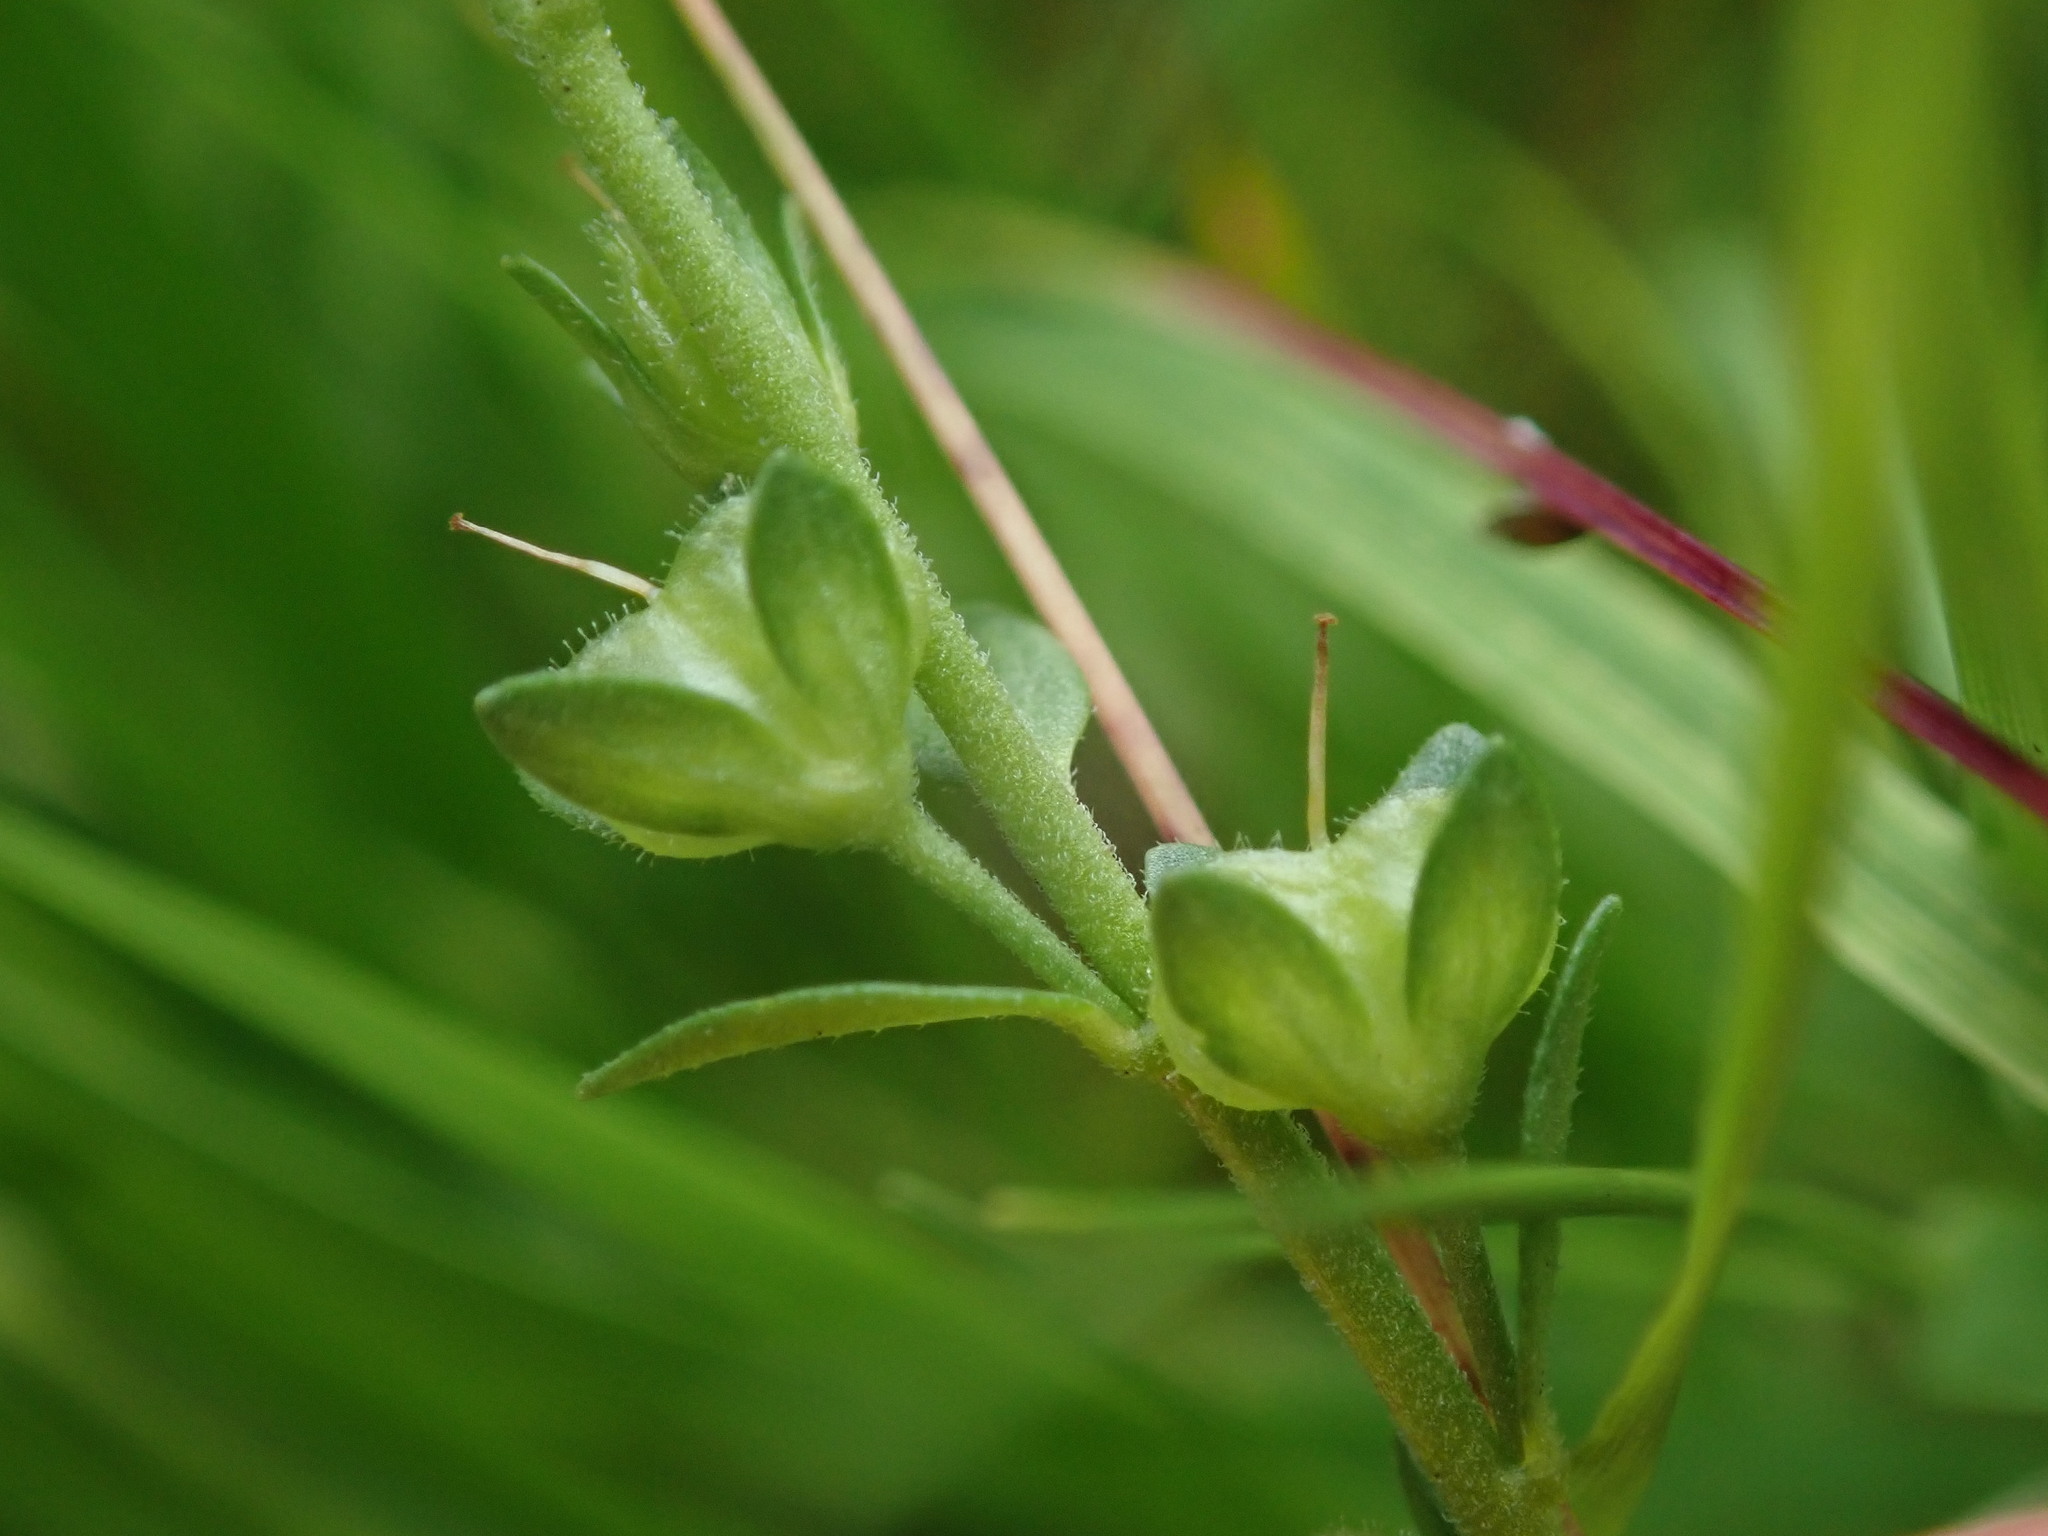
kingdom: Plantae
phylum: Tracheophyta
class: Magnoliopsida
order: Lamiales
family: Plantaginaceae
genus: Veronica
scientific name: Veronica serpyllifolia
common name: Thyme-leaved speedwell
